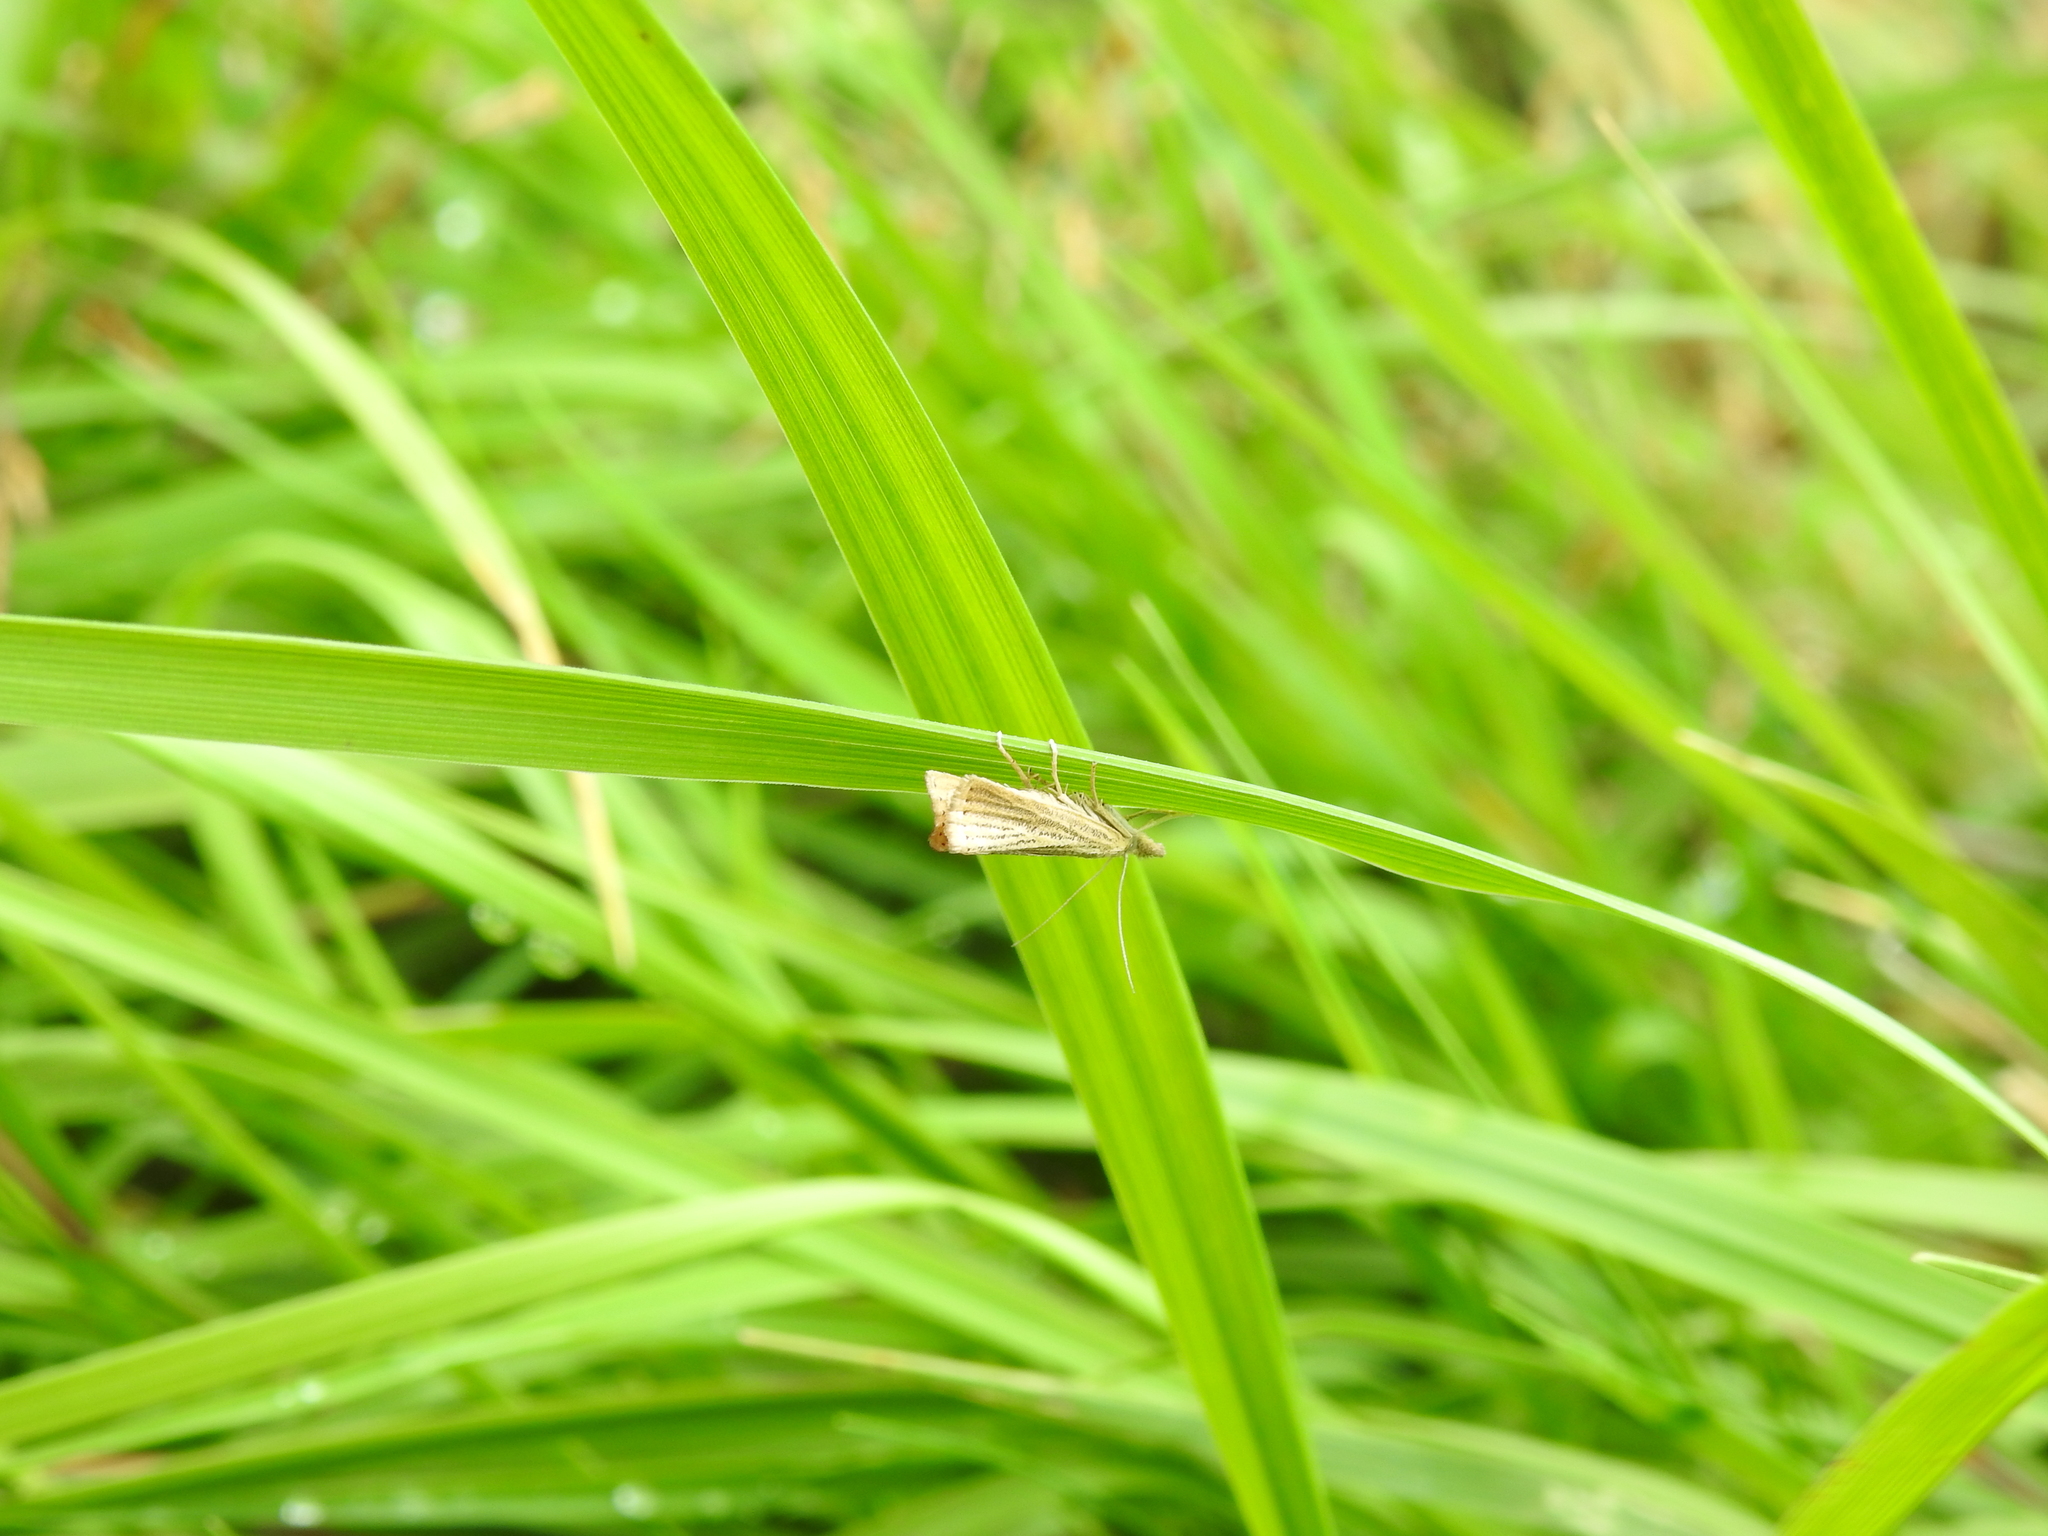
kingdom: Animalia
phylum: Arthropoda
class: Insecta
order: Lepidoptera
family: Crambidae
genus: Agriphila
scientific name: Agriphila straminella
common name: Straw grass-veneer
